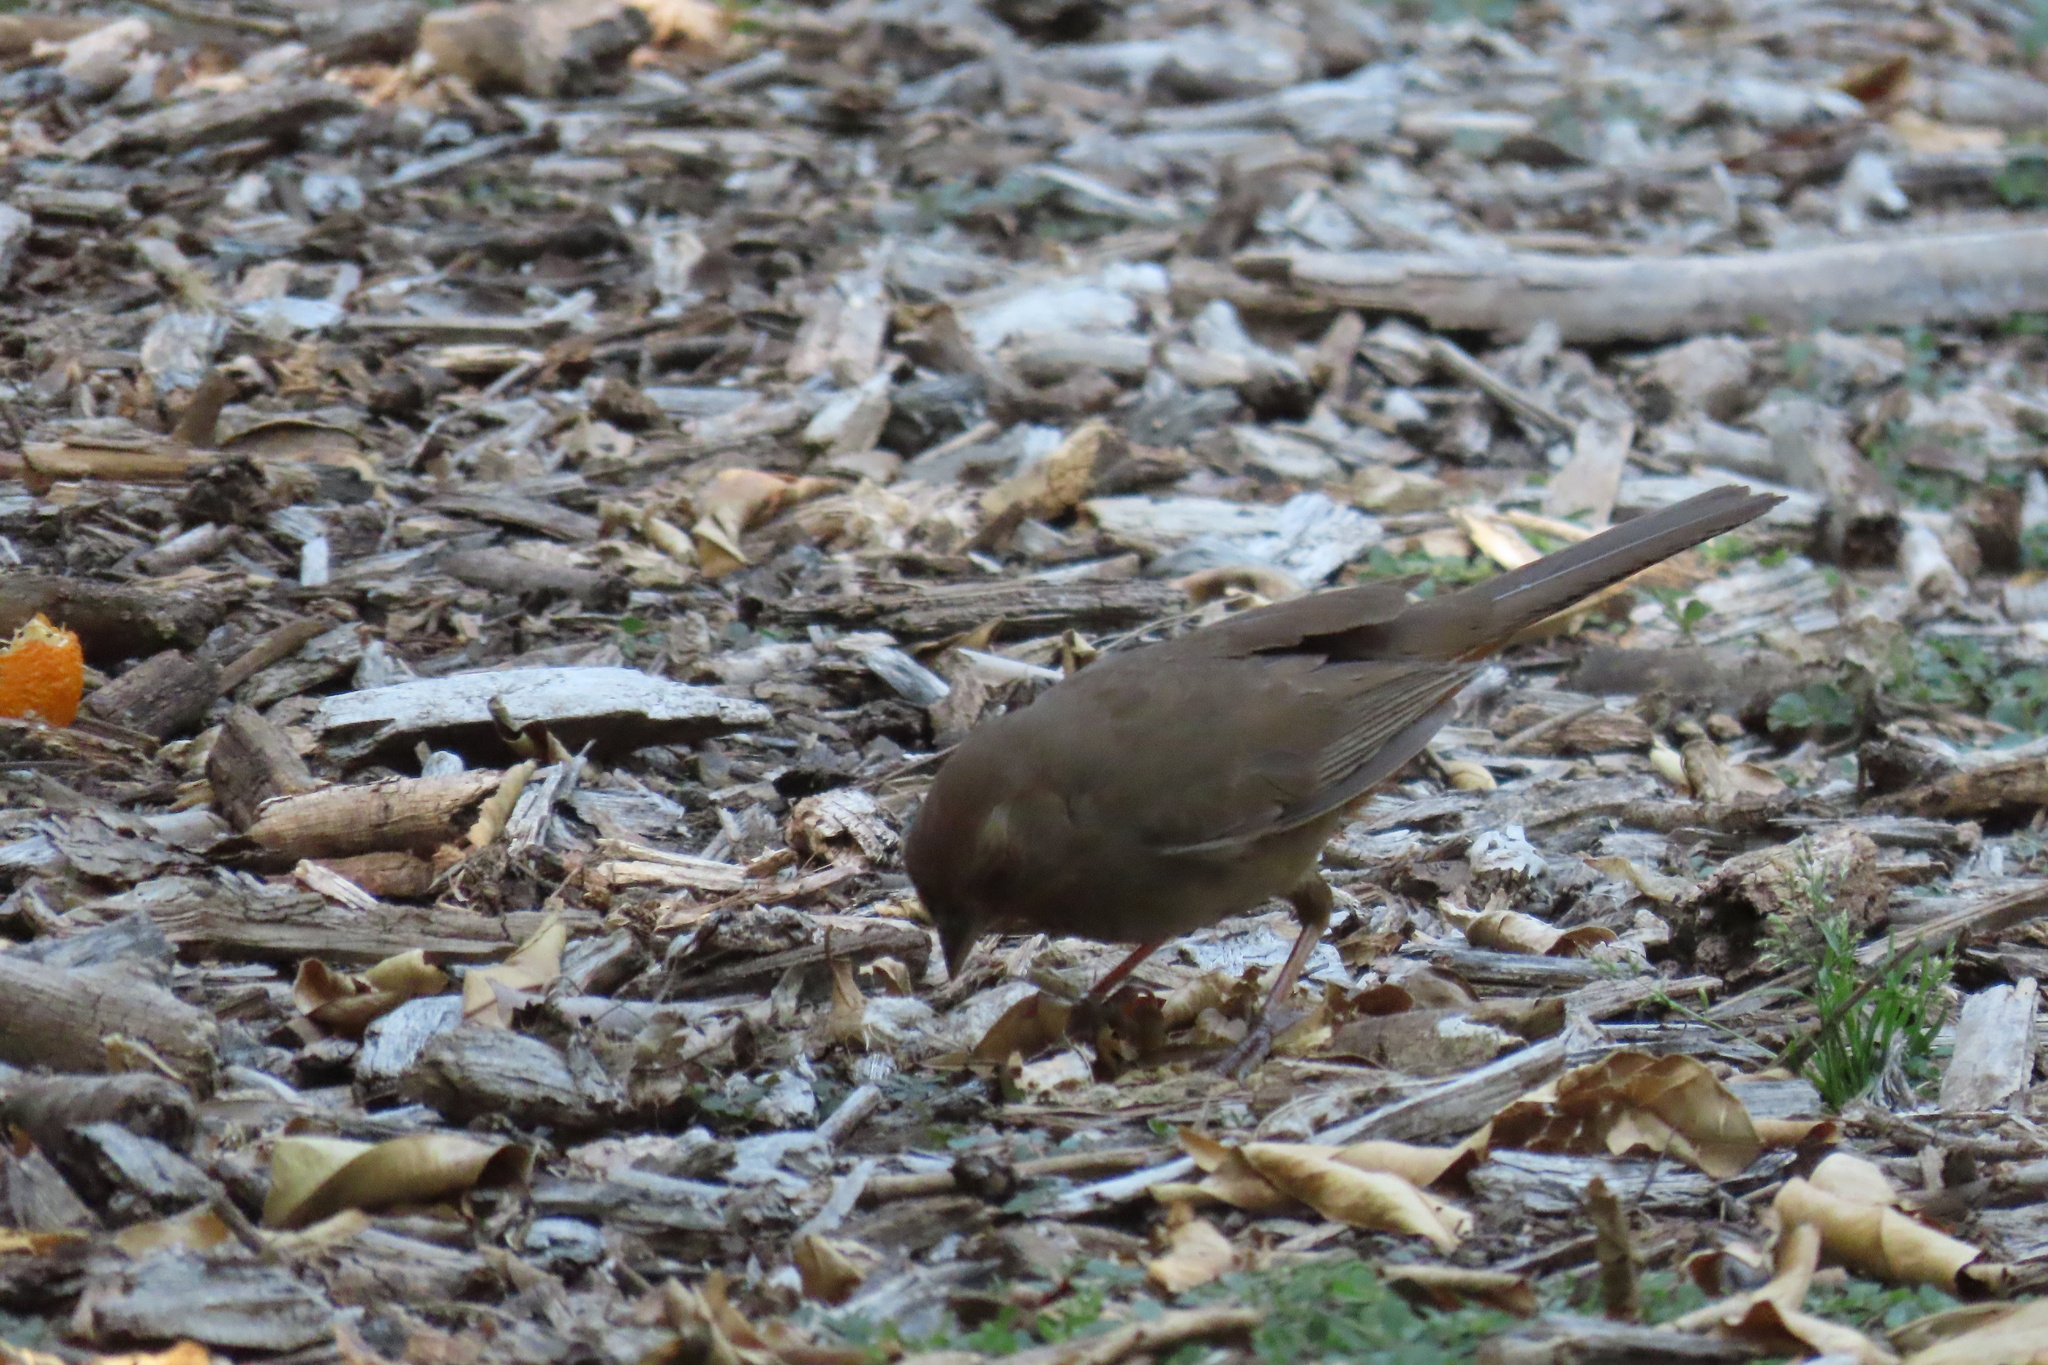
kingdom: Animalia
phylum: Chordata
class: Aves
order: Passeriformes
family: Passerellidae
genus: Melozone
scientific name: Melozone crissalis
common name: California towhee
